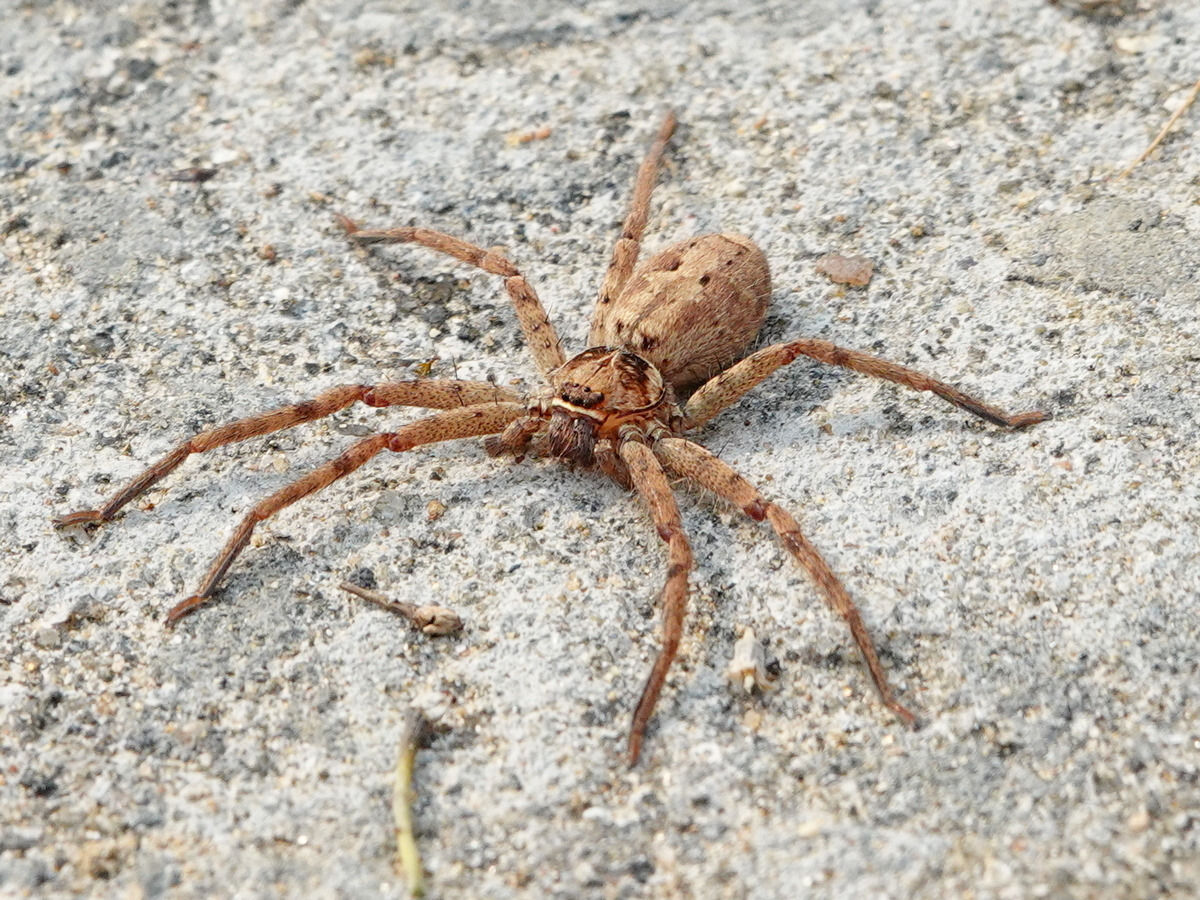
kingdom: Animalia
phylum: Arthropoda
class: Arachnida
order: Araneae
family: Sparassidae
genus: Heteropoda
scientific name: Heteropoda venatoria
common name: Huntsman spider
